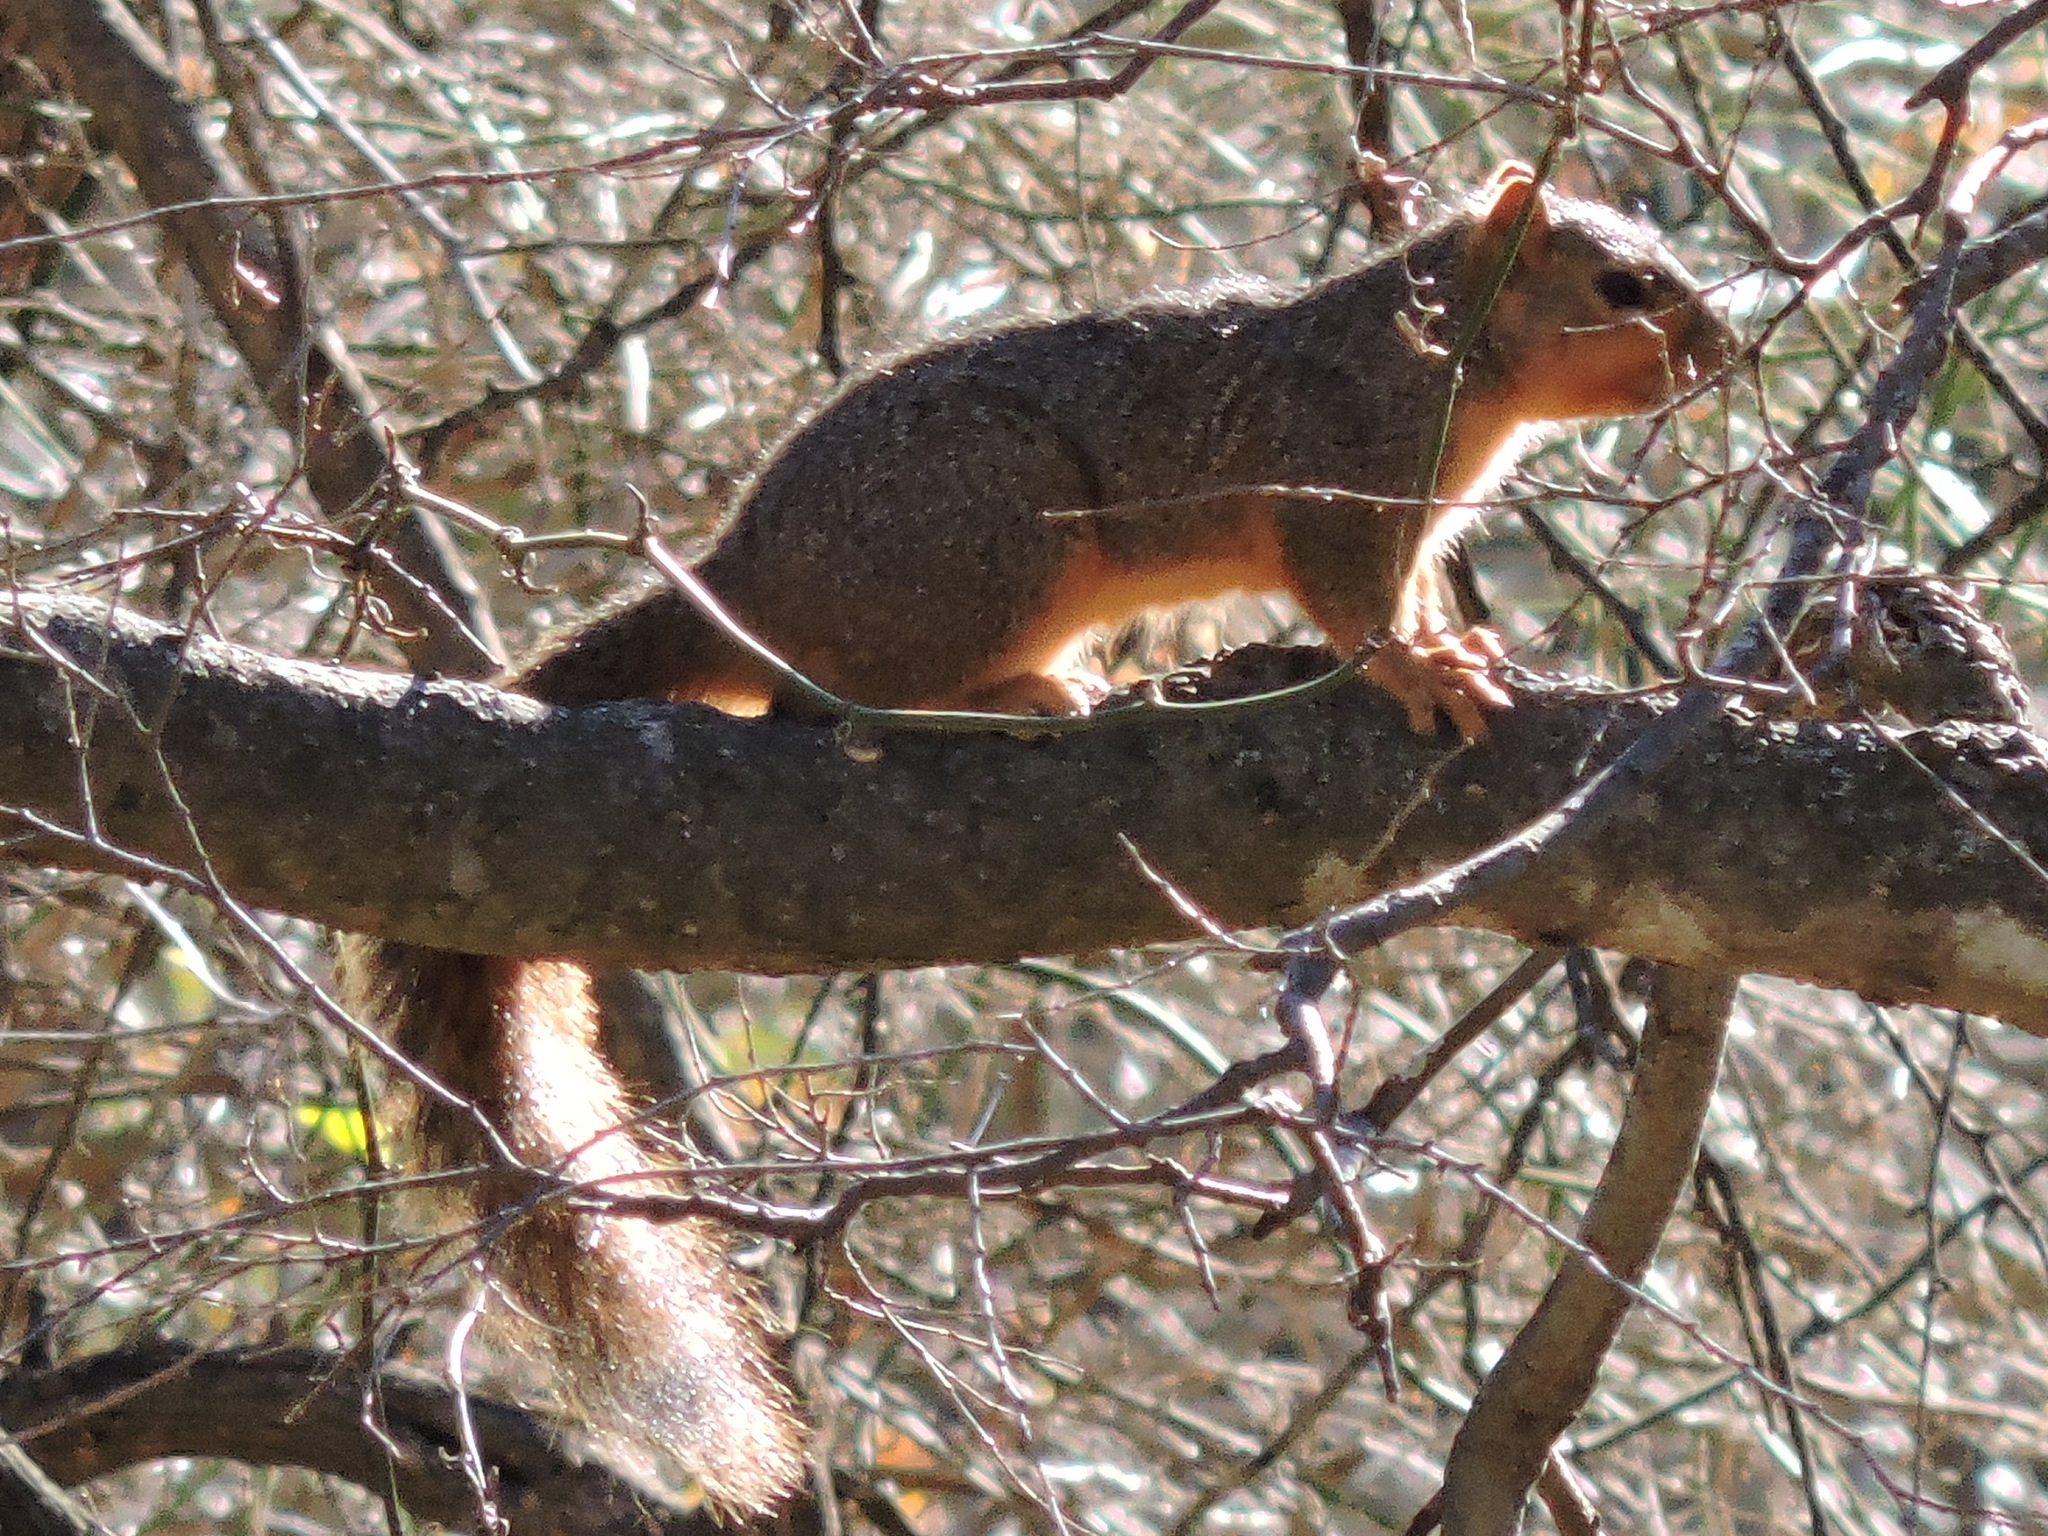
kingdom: Animalia
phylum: Chordata
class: Mammalia
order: Rodentia
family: Sciuridae
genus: Sciurus
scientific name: Sciurus niger
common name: Fox squirrel
